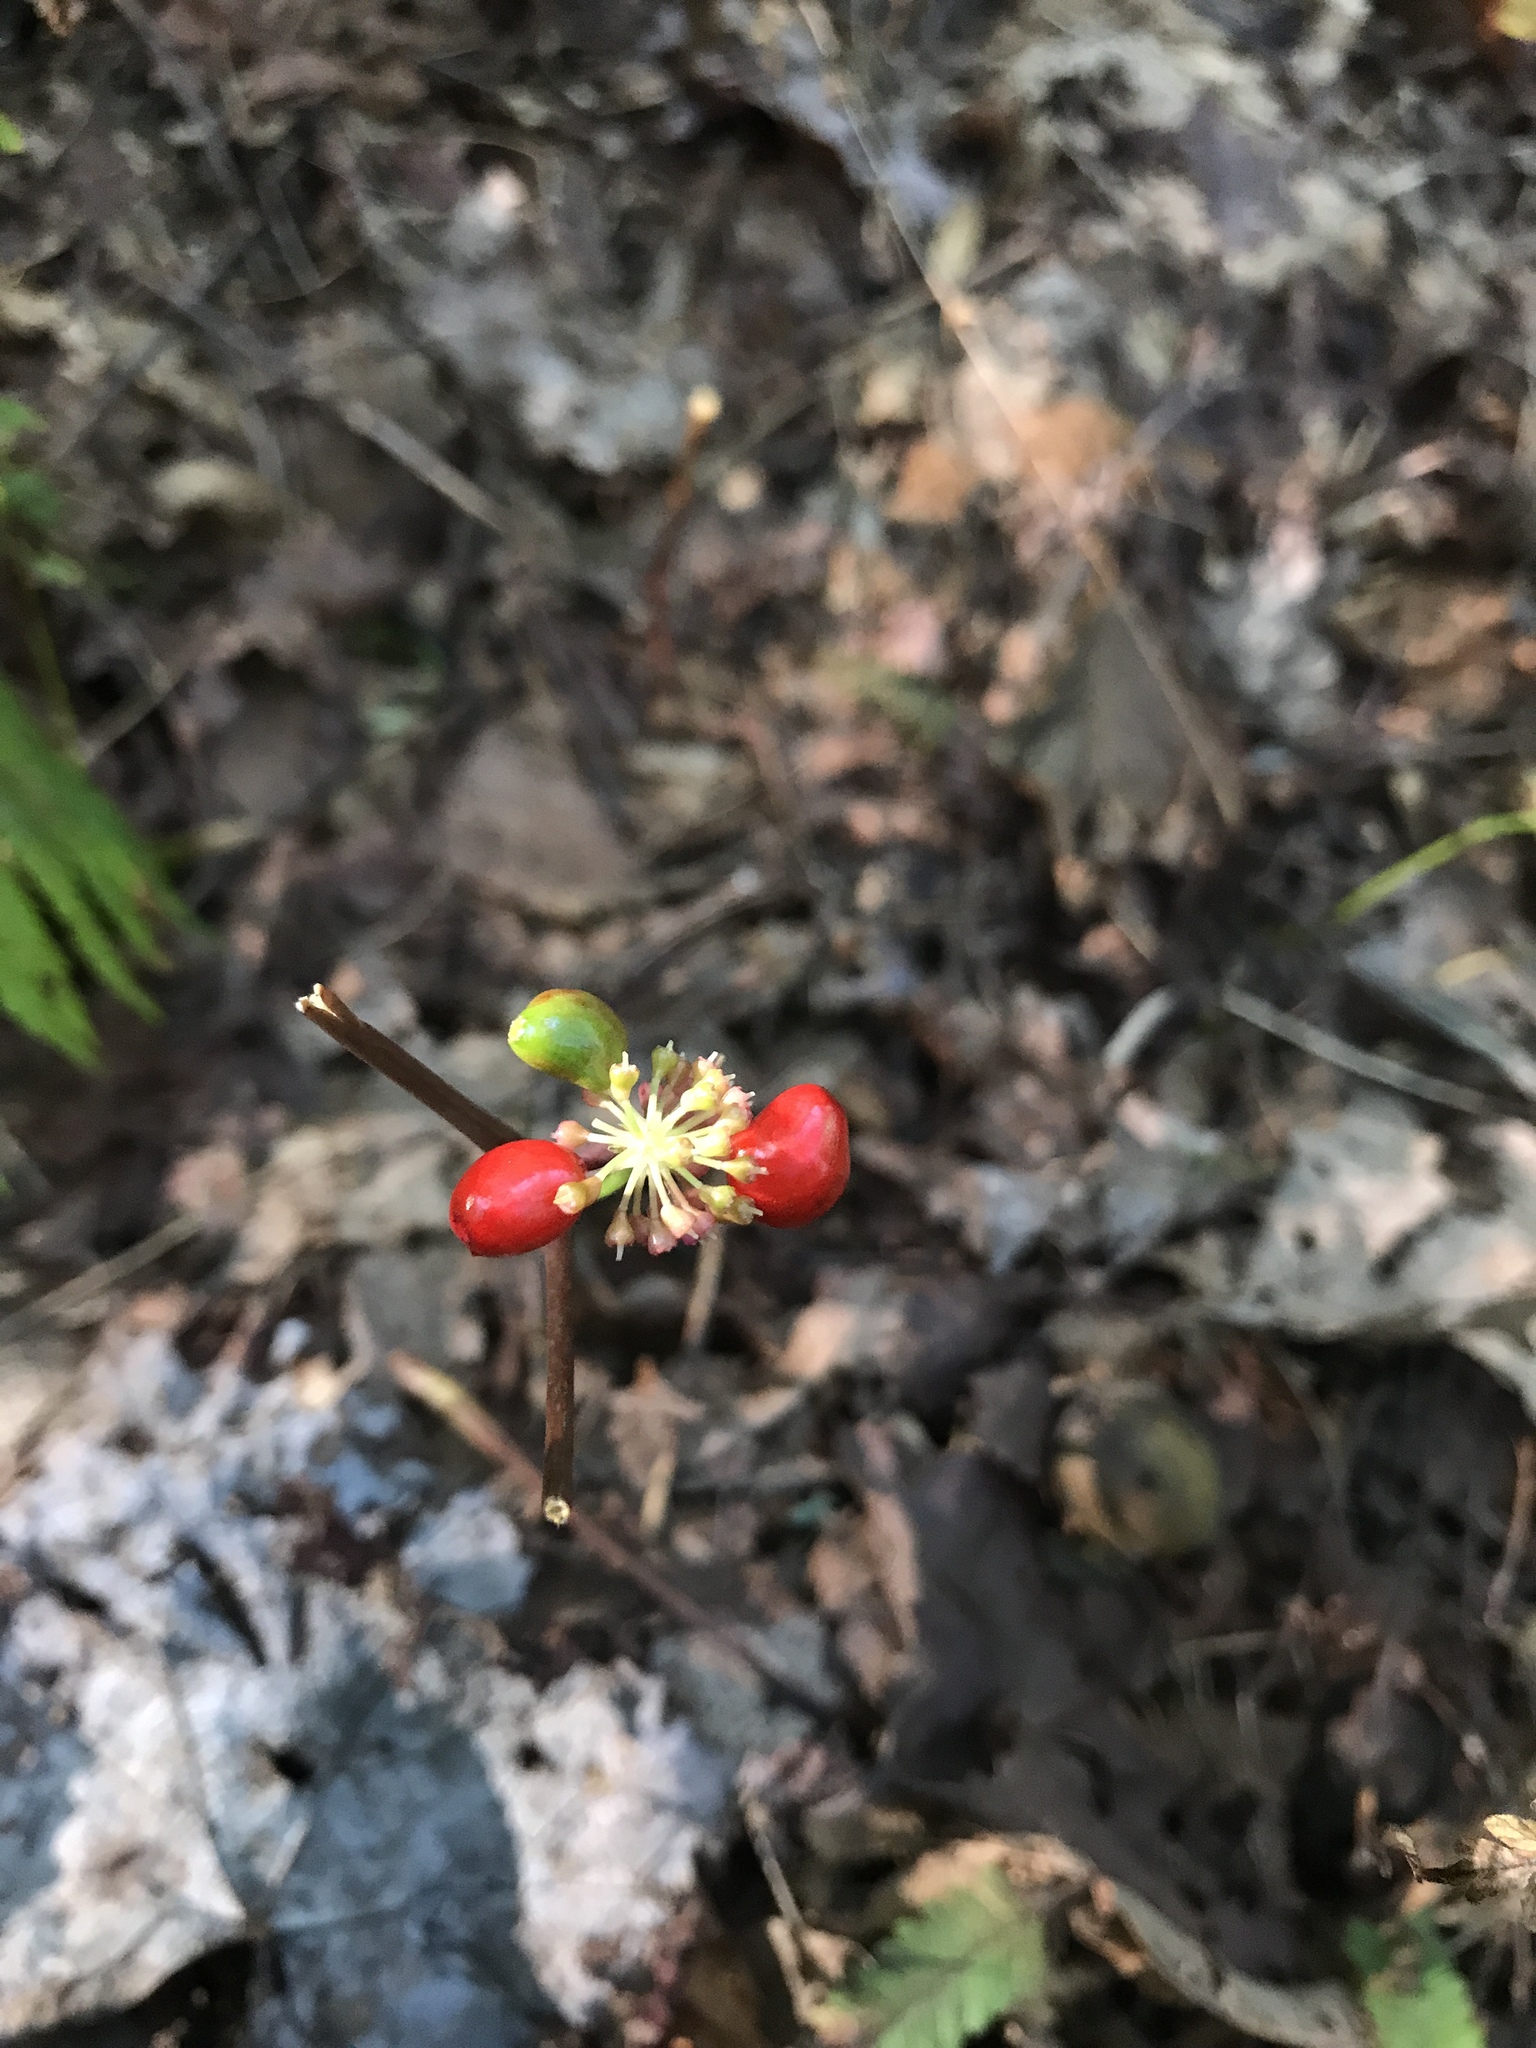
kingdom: Plantae
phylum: Tracheophyta
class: Magnoliopsida
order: Apiales
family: Araliaceae
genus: Panax
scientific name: Panax quinquefolius
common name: American ginseng
